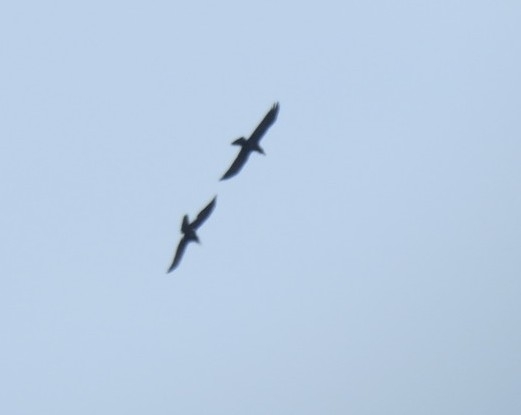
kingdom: Animalia
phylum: Chordata
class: Aves
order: Passeriformes
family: Corvidae
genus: Corvus
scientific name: Corvus corax
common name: Common raven
